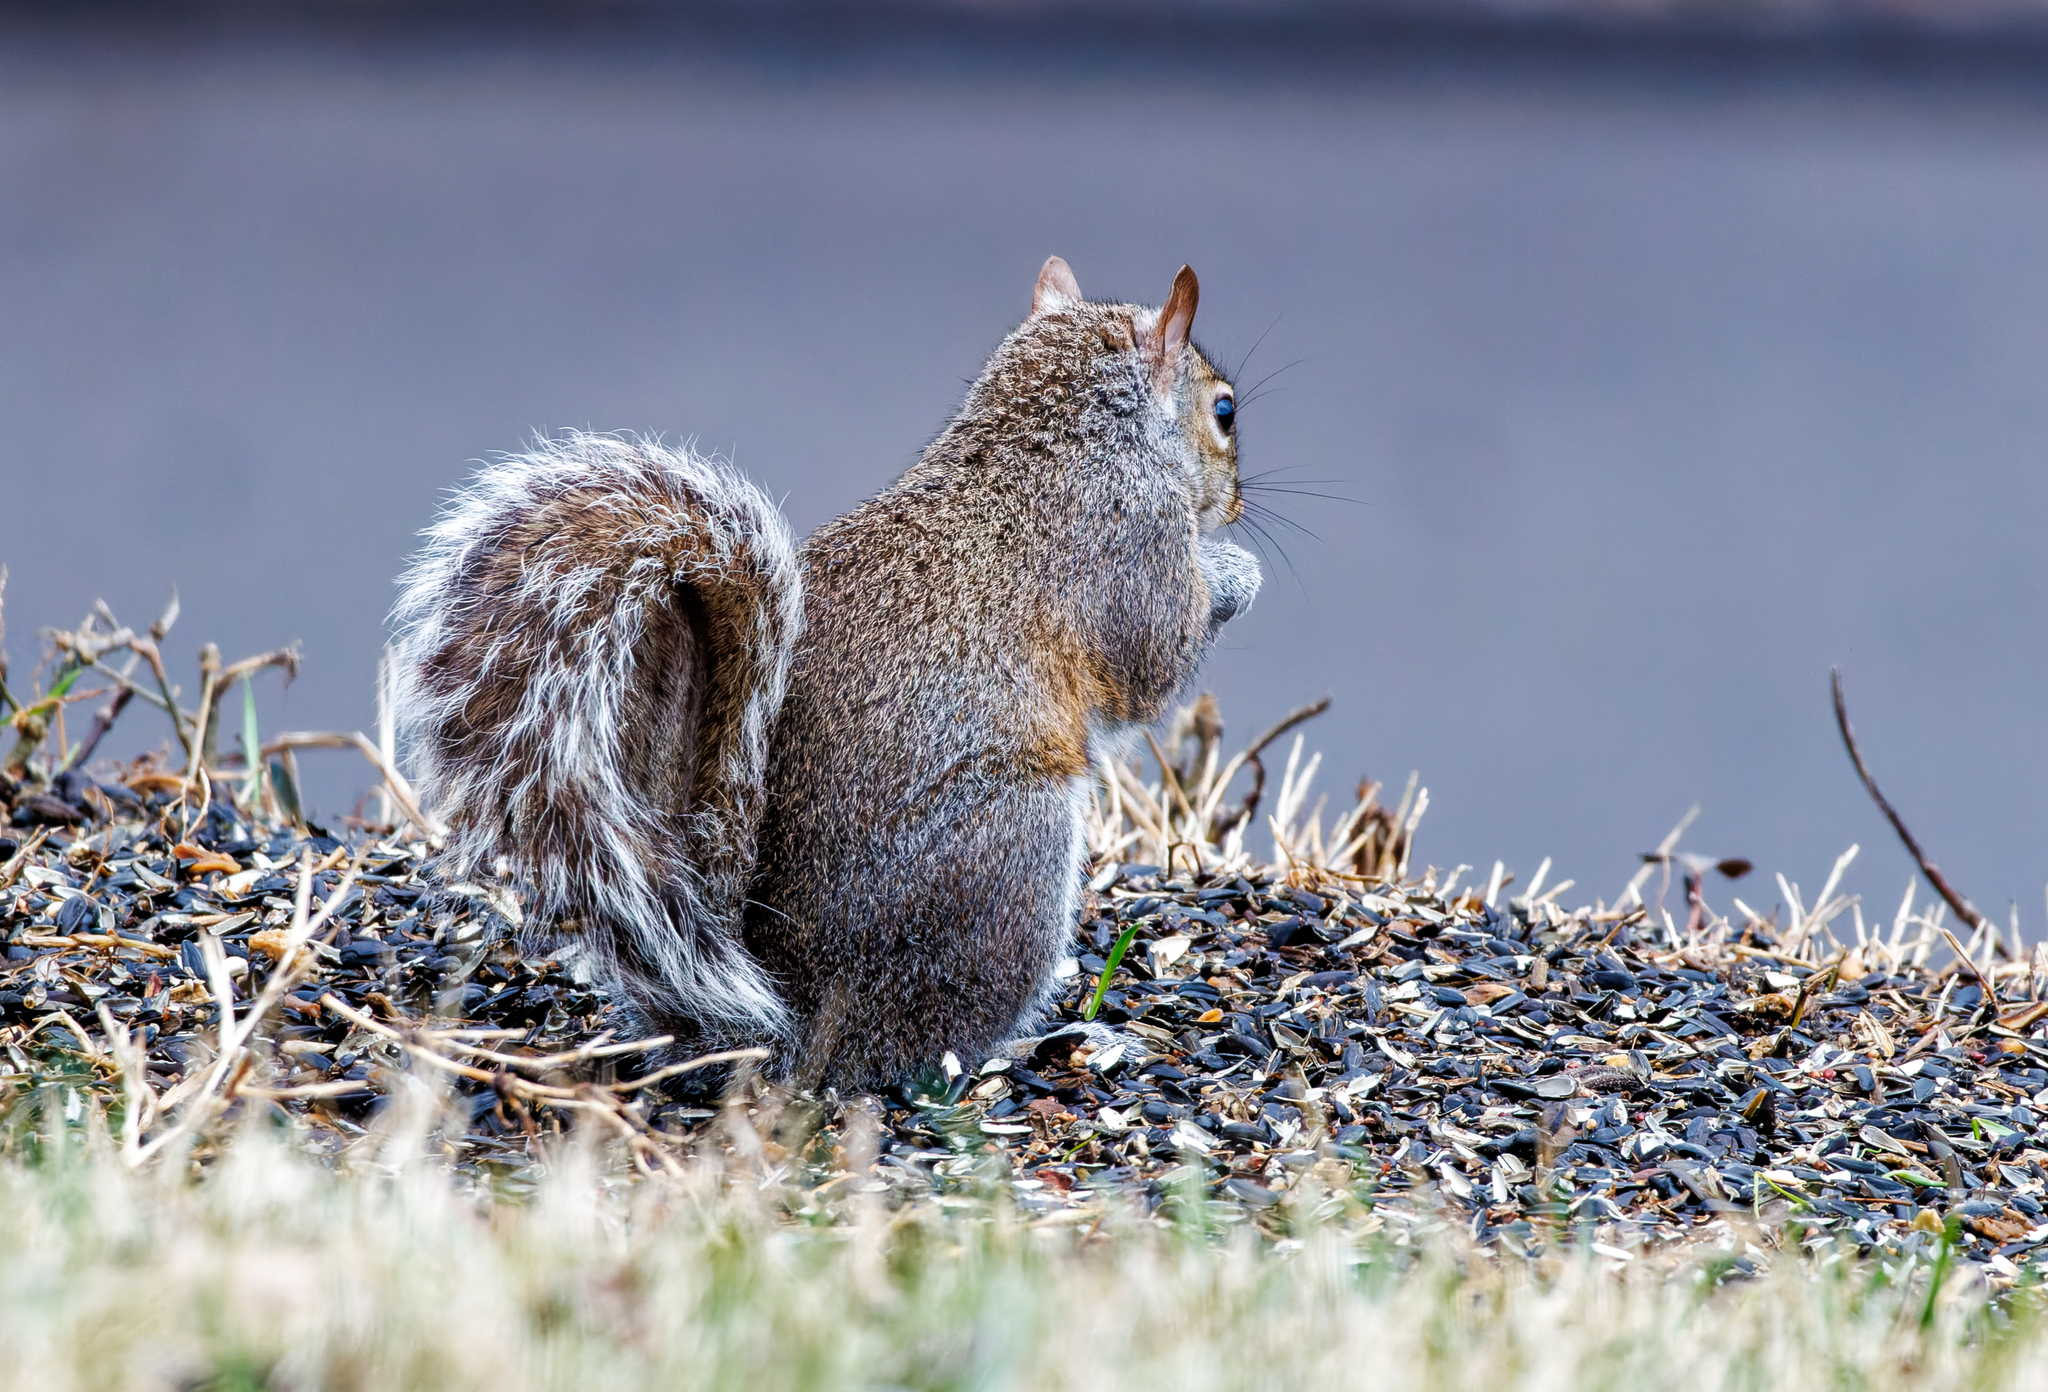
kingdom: Animalia
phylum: Chordata
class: Mammalia
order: Rodentia
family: Sciuridae
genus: Sciurus
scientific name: Sciurus carolinensis
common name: Eastern gray squirrel
